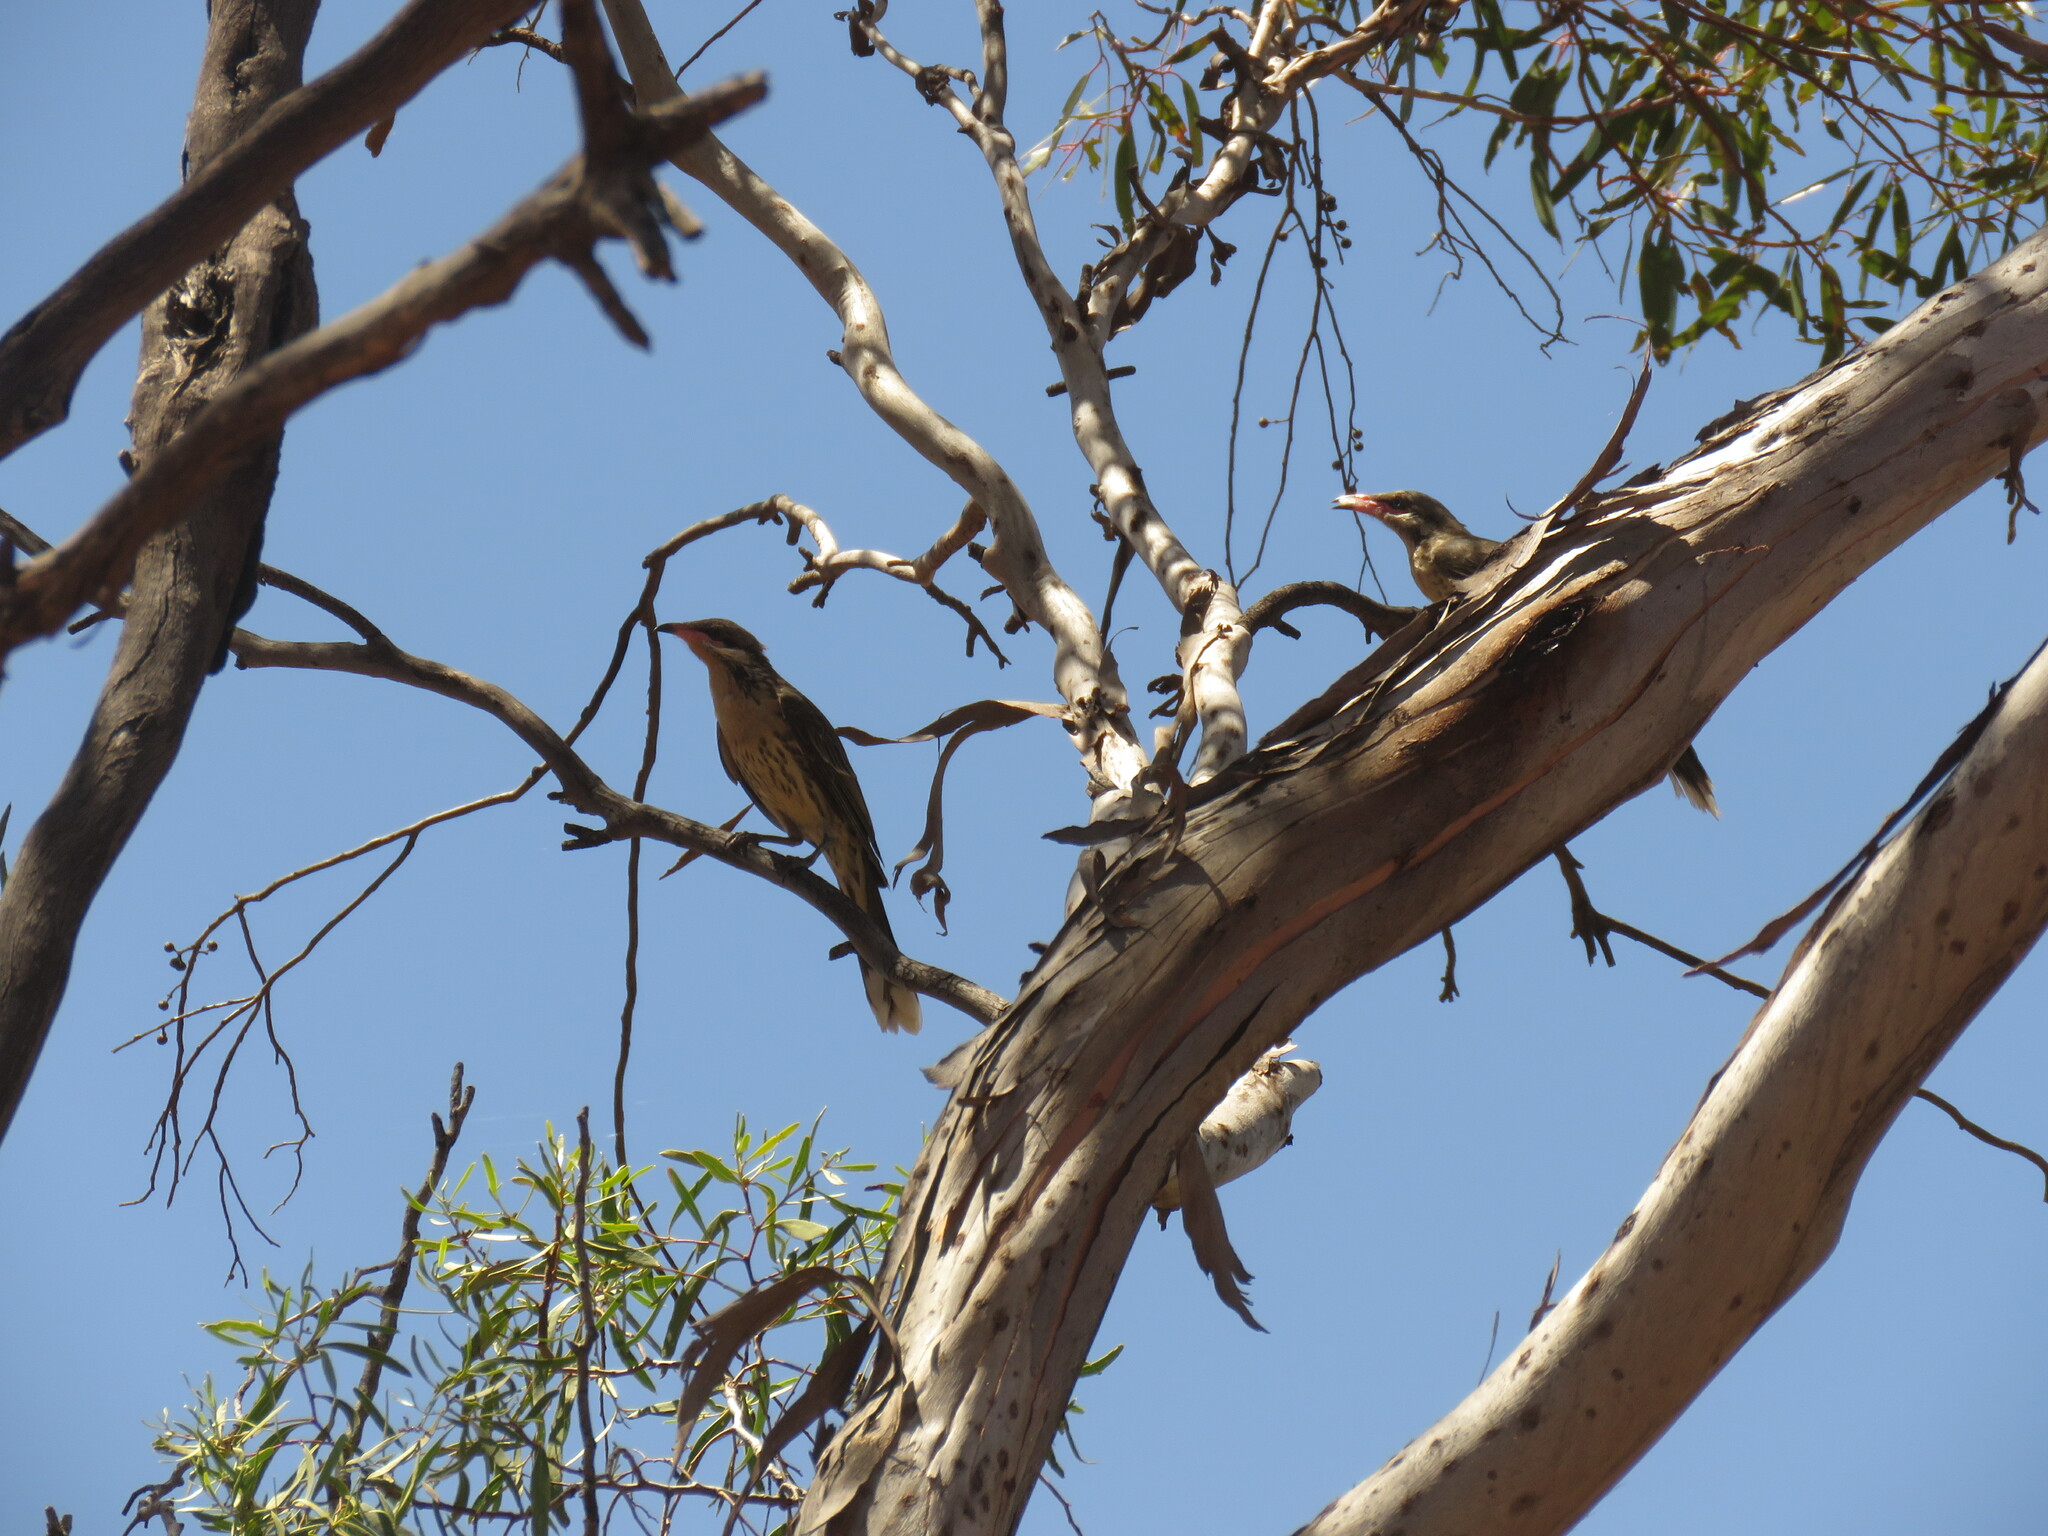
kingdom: Animalia
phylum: Chordata
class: Aves
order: Passeriformes
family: Meliphagidae
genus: Acanthagenys
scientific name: Acanthagenys rufogularis
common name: Spiny-cheeked honeyeater
